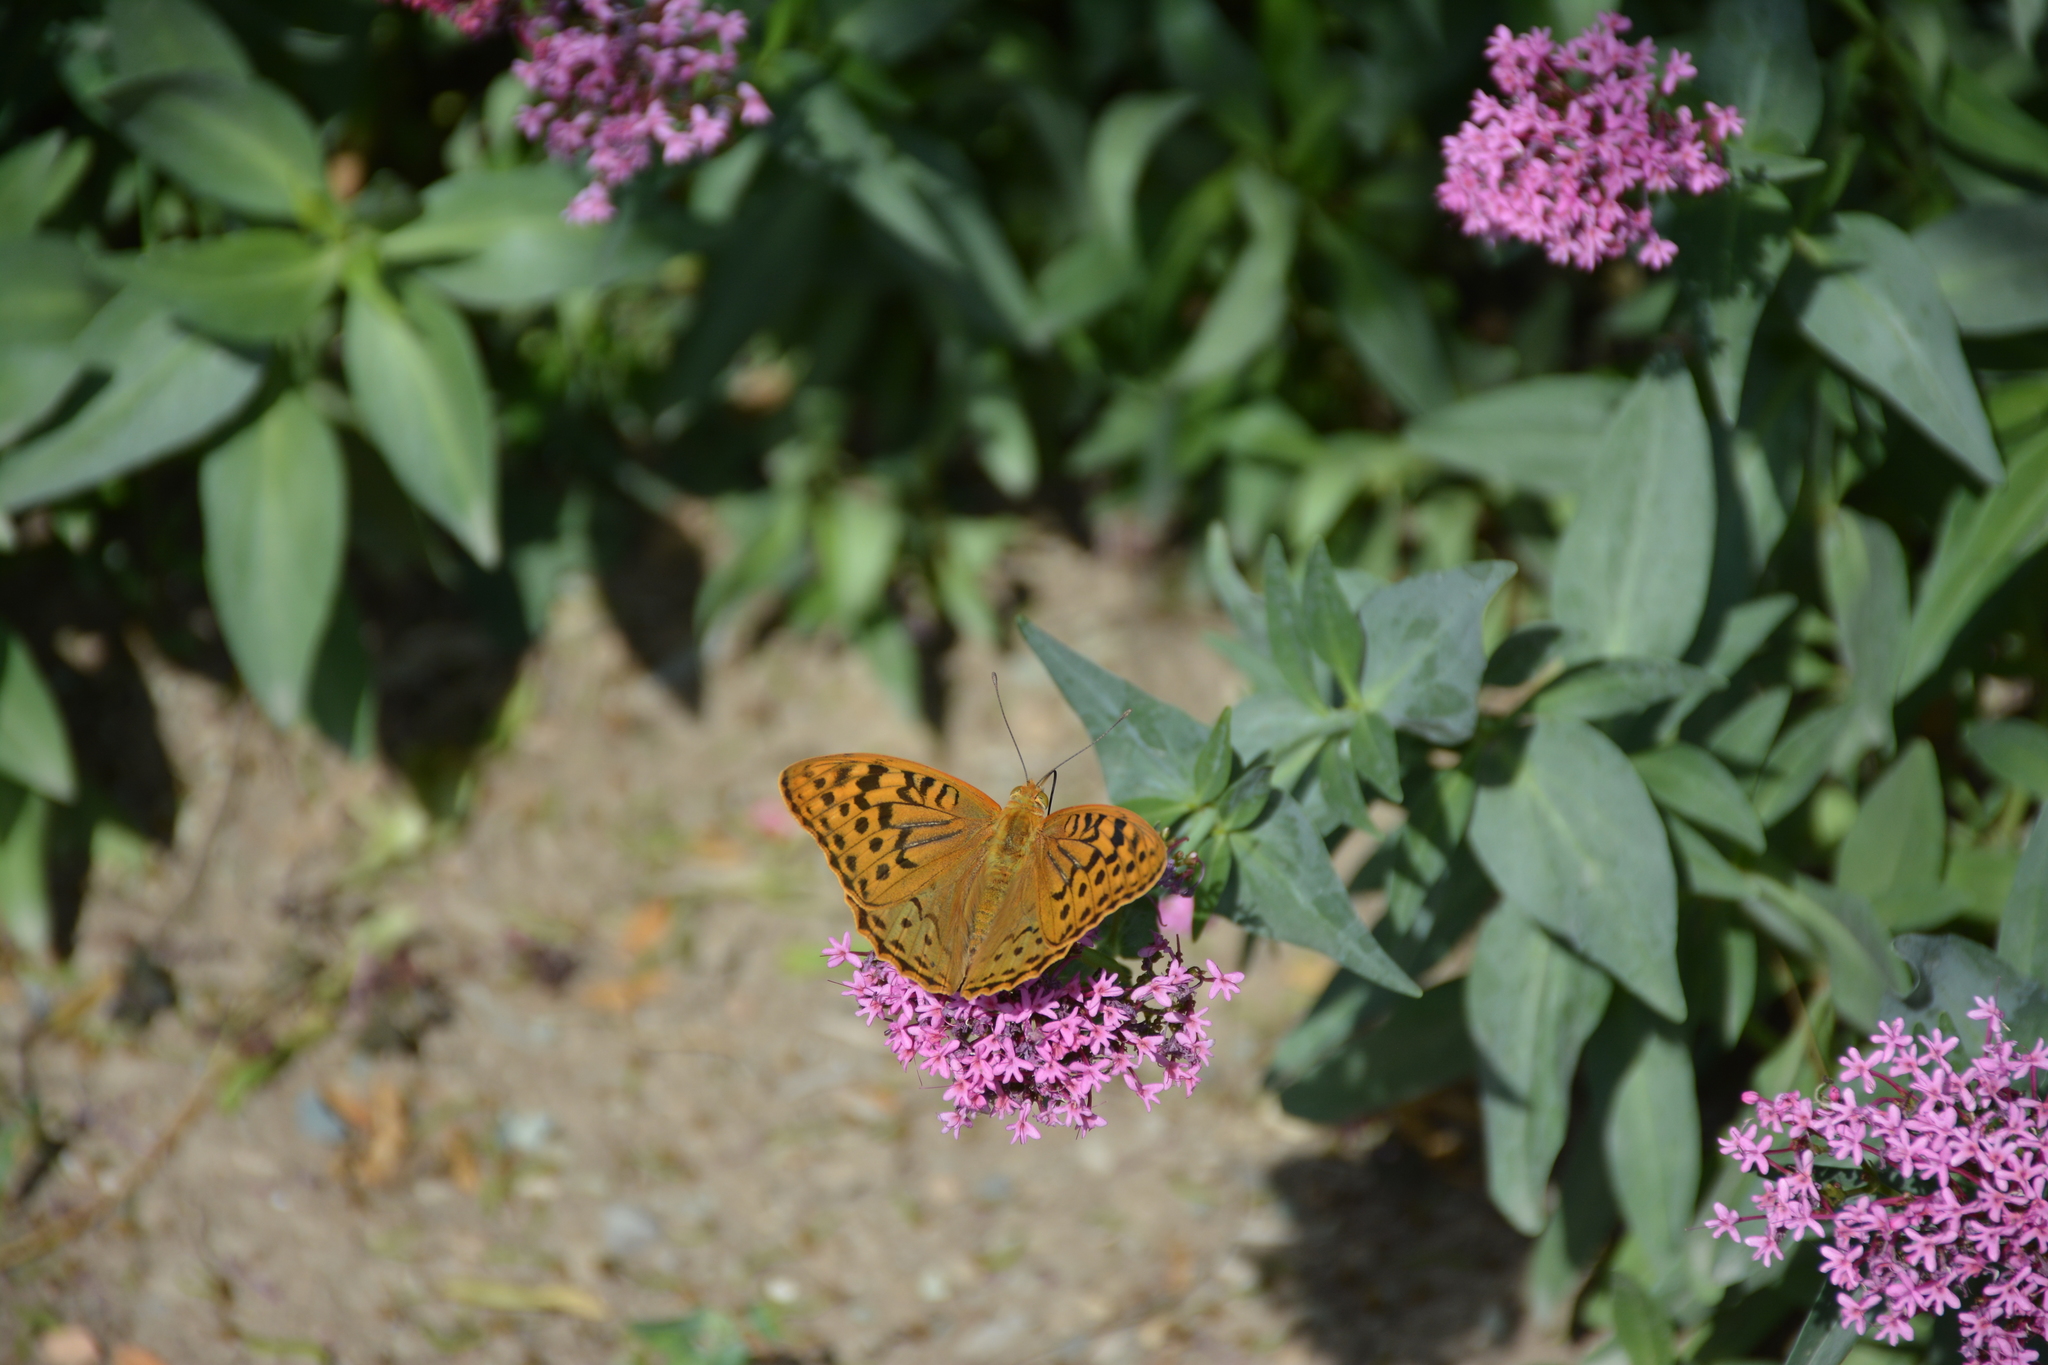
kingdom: Animalia
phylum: Arthropoda
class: Insecta
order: Lepidoptera
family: Nymphalidae
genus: Damora
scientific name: Damora pandora
